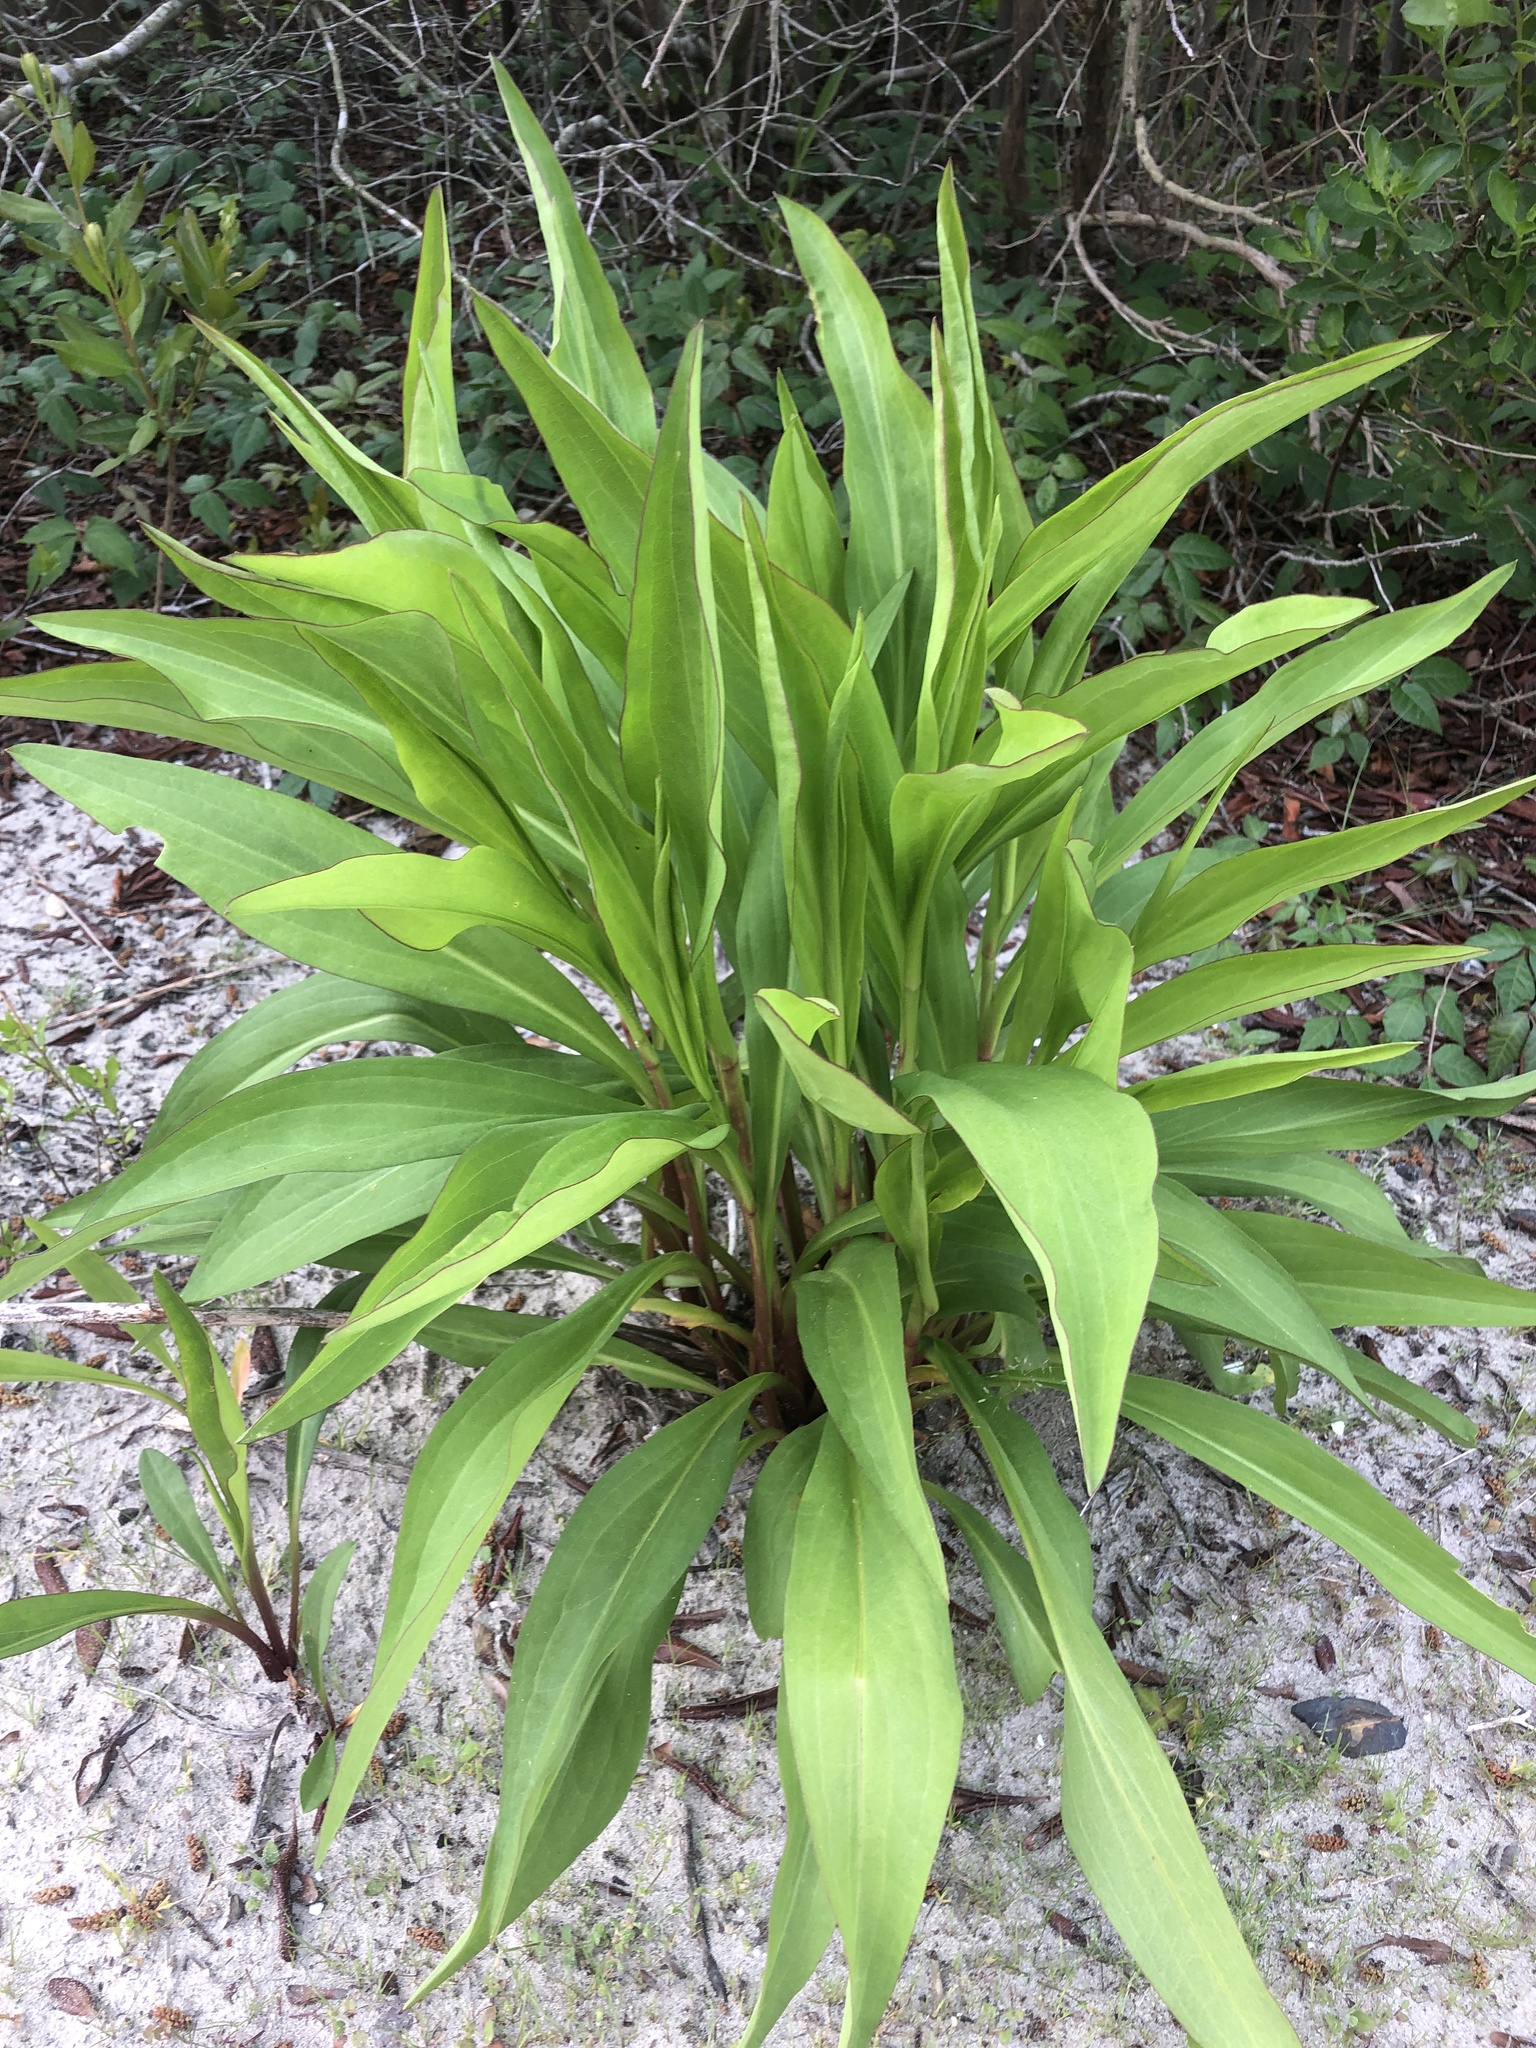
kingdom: Plantae
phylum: Tracheophyta
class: Magnoliopsida
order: Asterales
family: Asteraceae
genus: Solidago
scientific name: Solidago sempervirens
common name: Salt-marsh goldenrod
